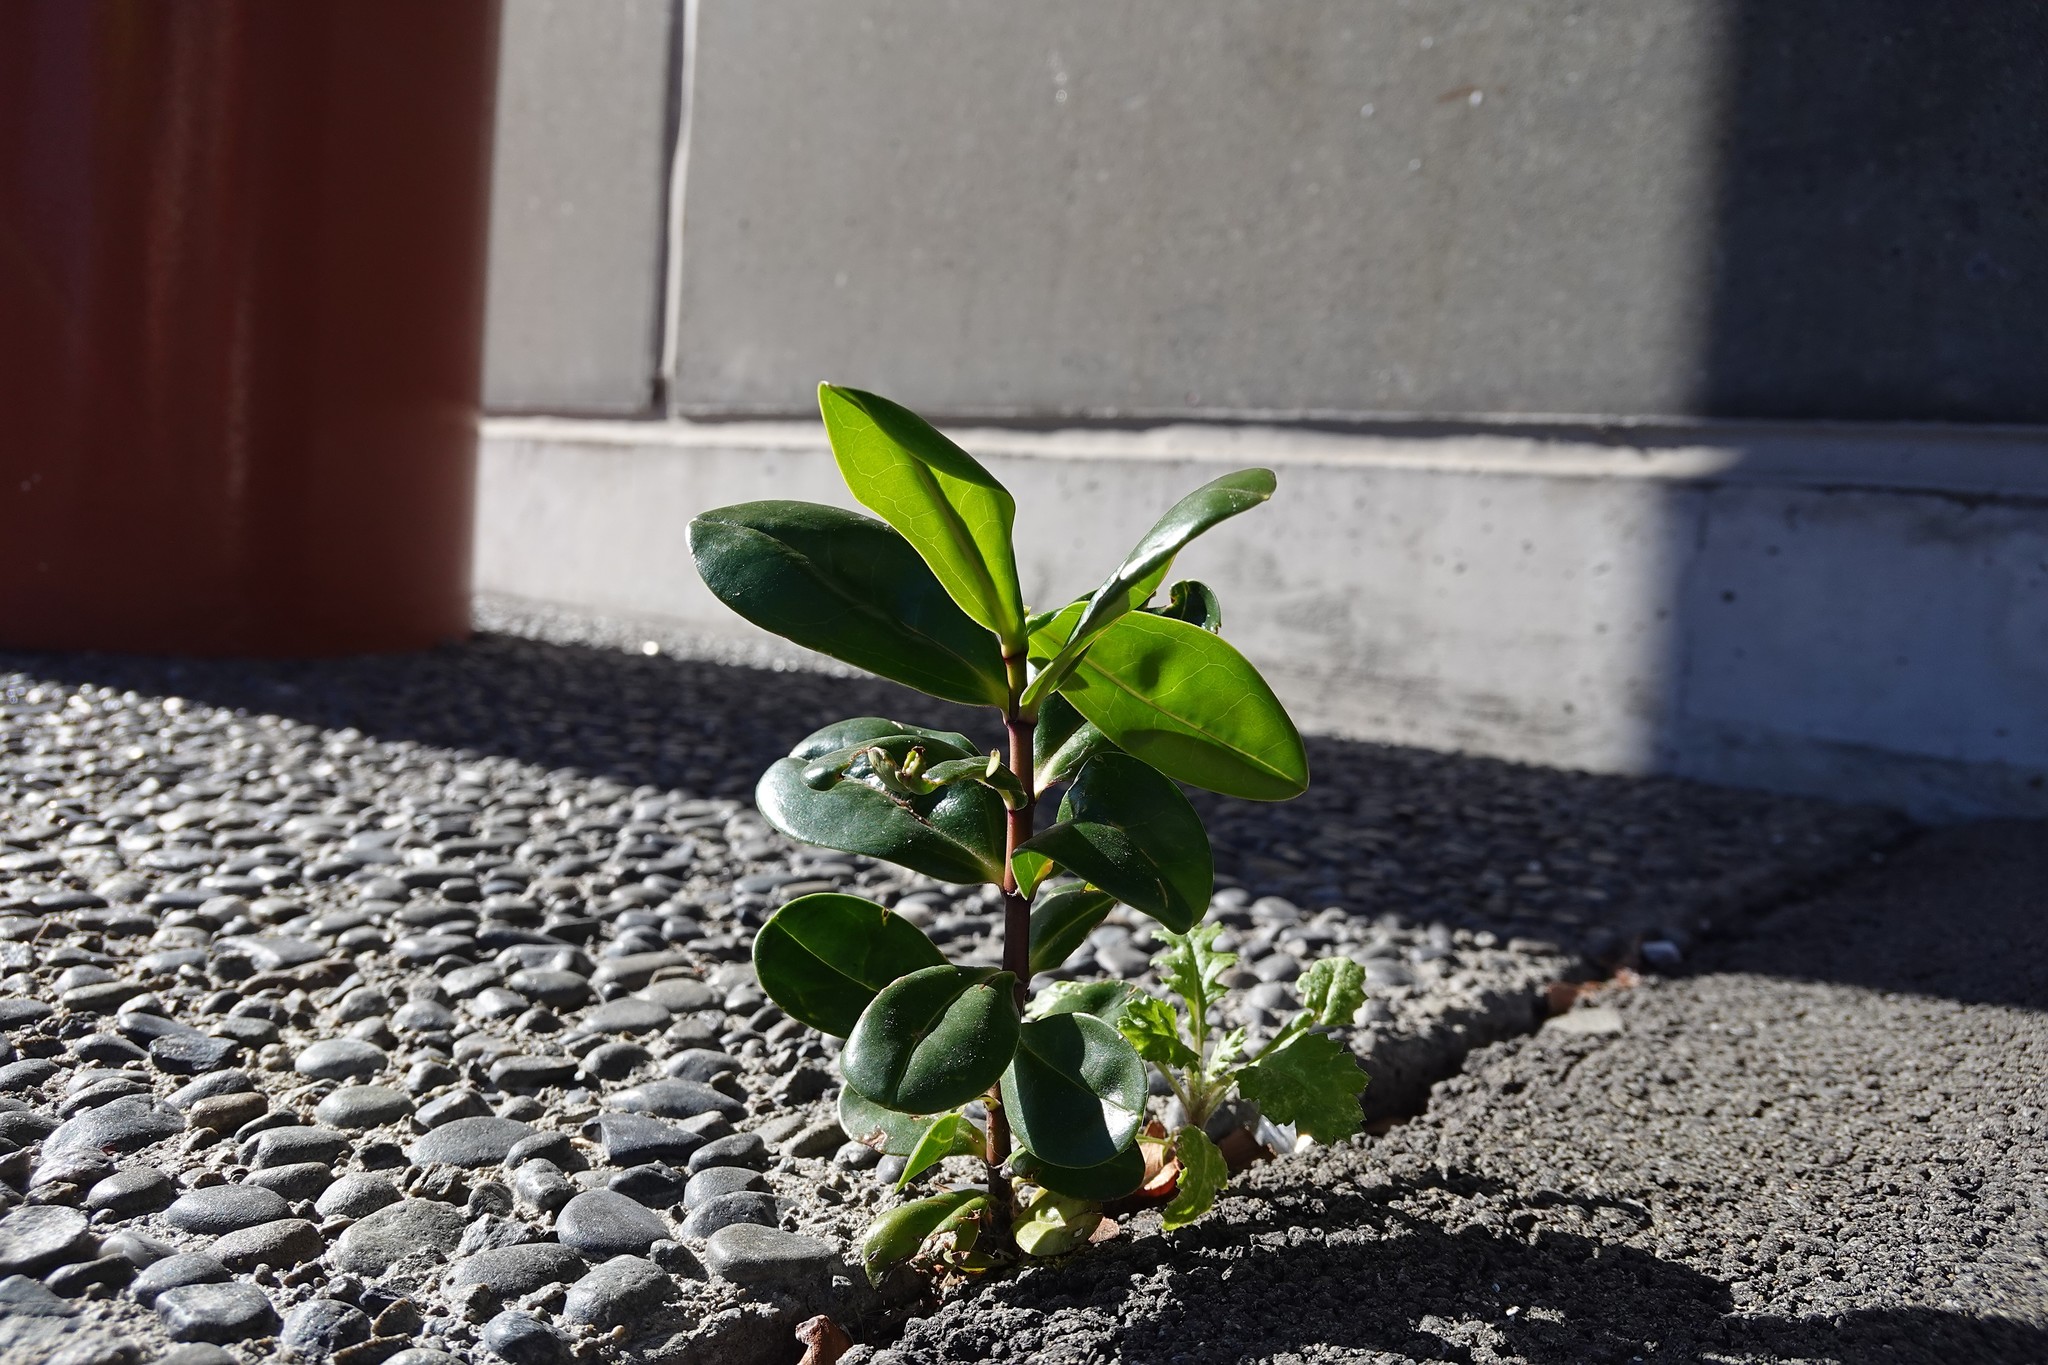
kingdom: Plantae
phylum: Tracheophyta
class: Magnoliopsida
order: Lamiales
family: Plantaginaceae
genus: Veronica
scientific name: Veronica speciosa
